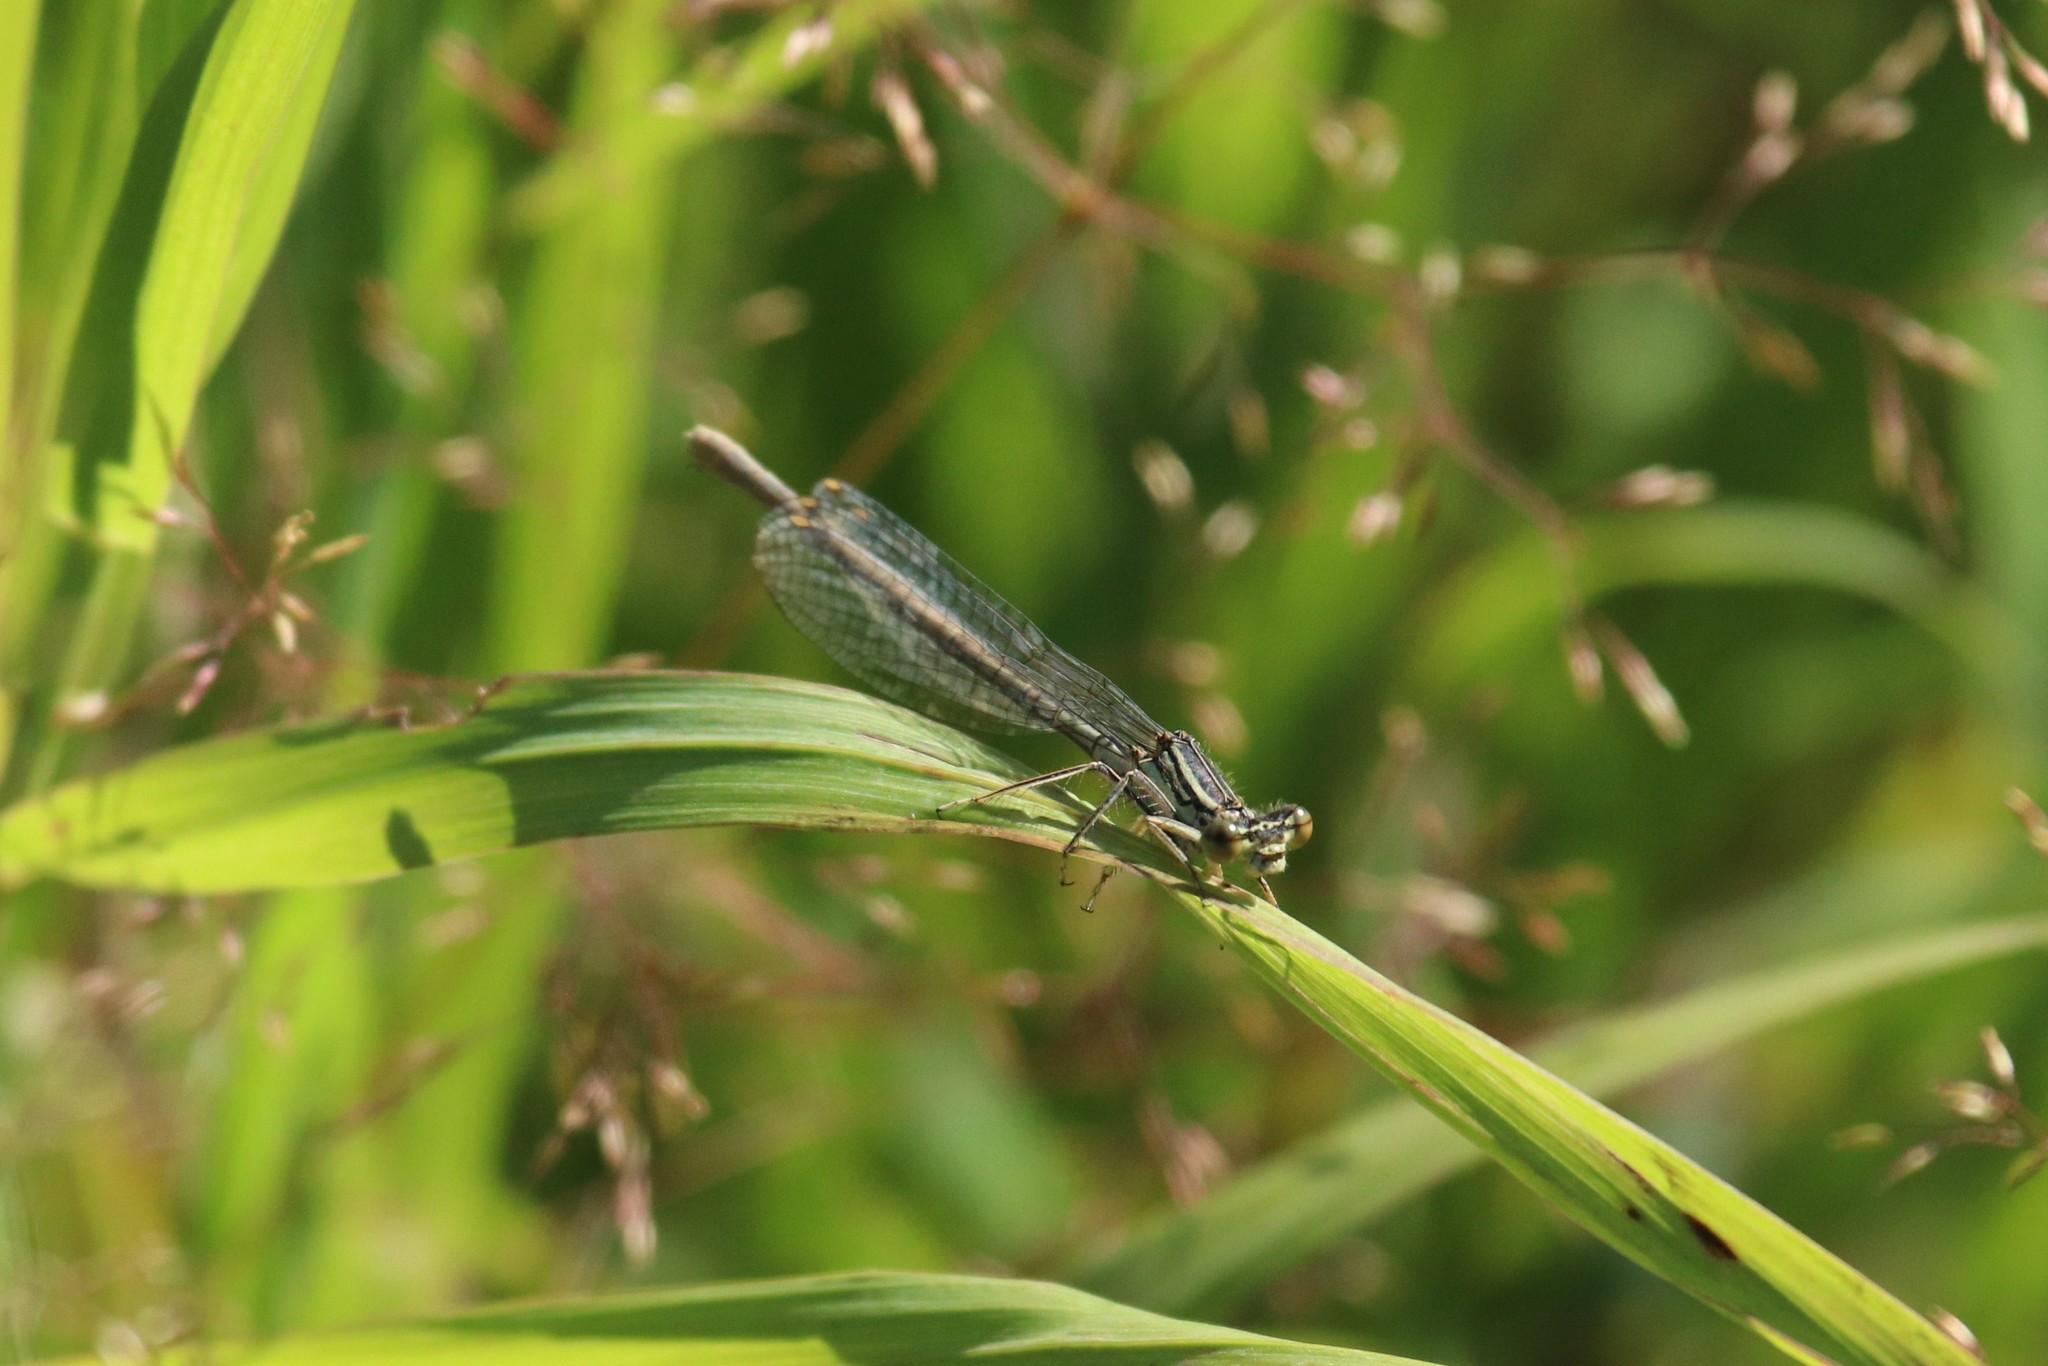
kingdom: Animalia
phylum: Arthropoda
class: Insecta
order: Odonata
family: Platycnemididae
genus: Platycnemis
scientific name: Platycnemis pennipes
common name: White-legged damselfly
